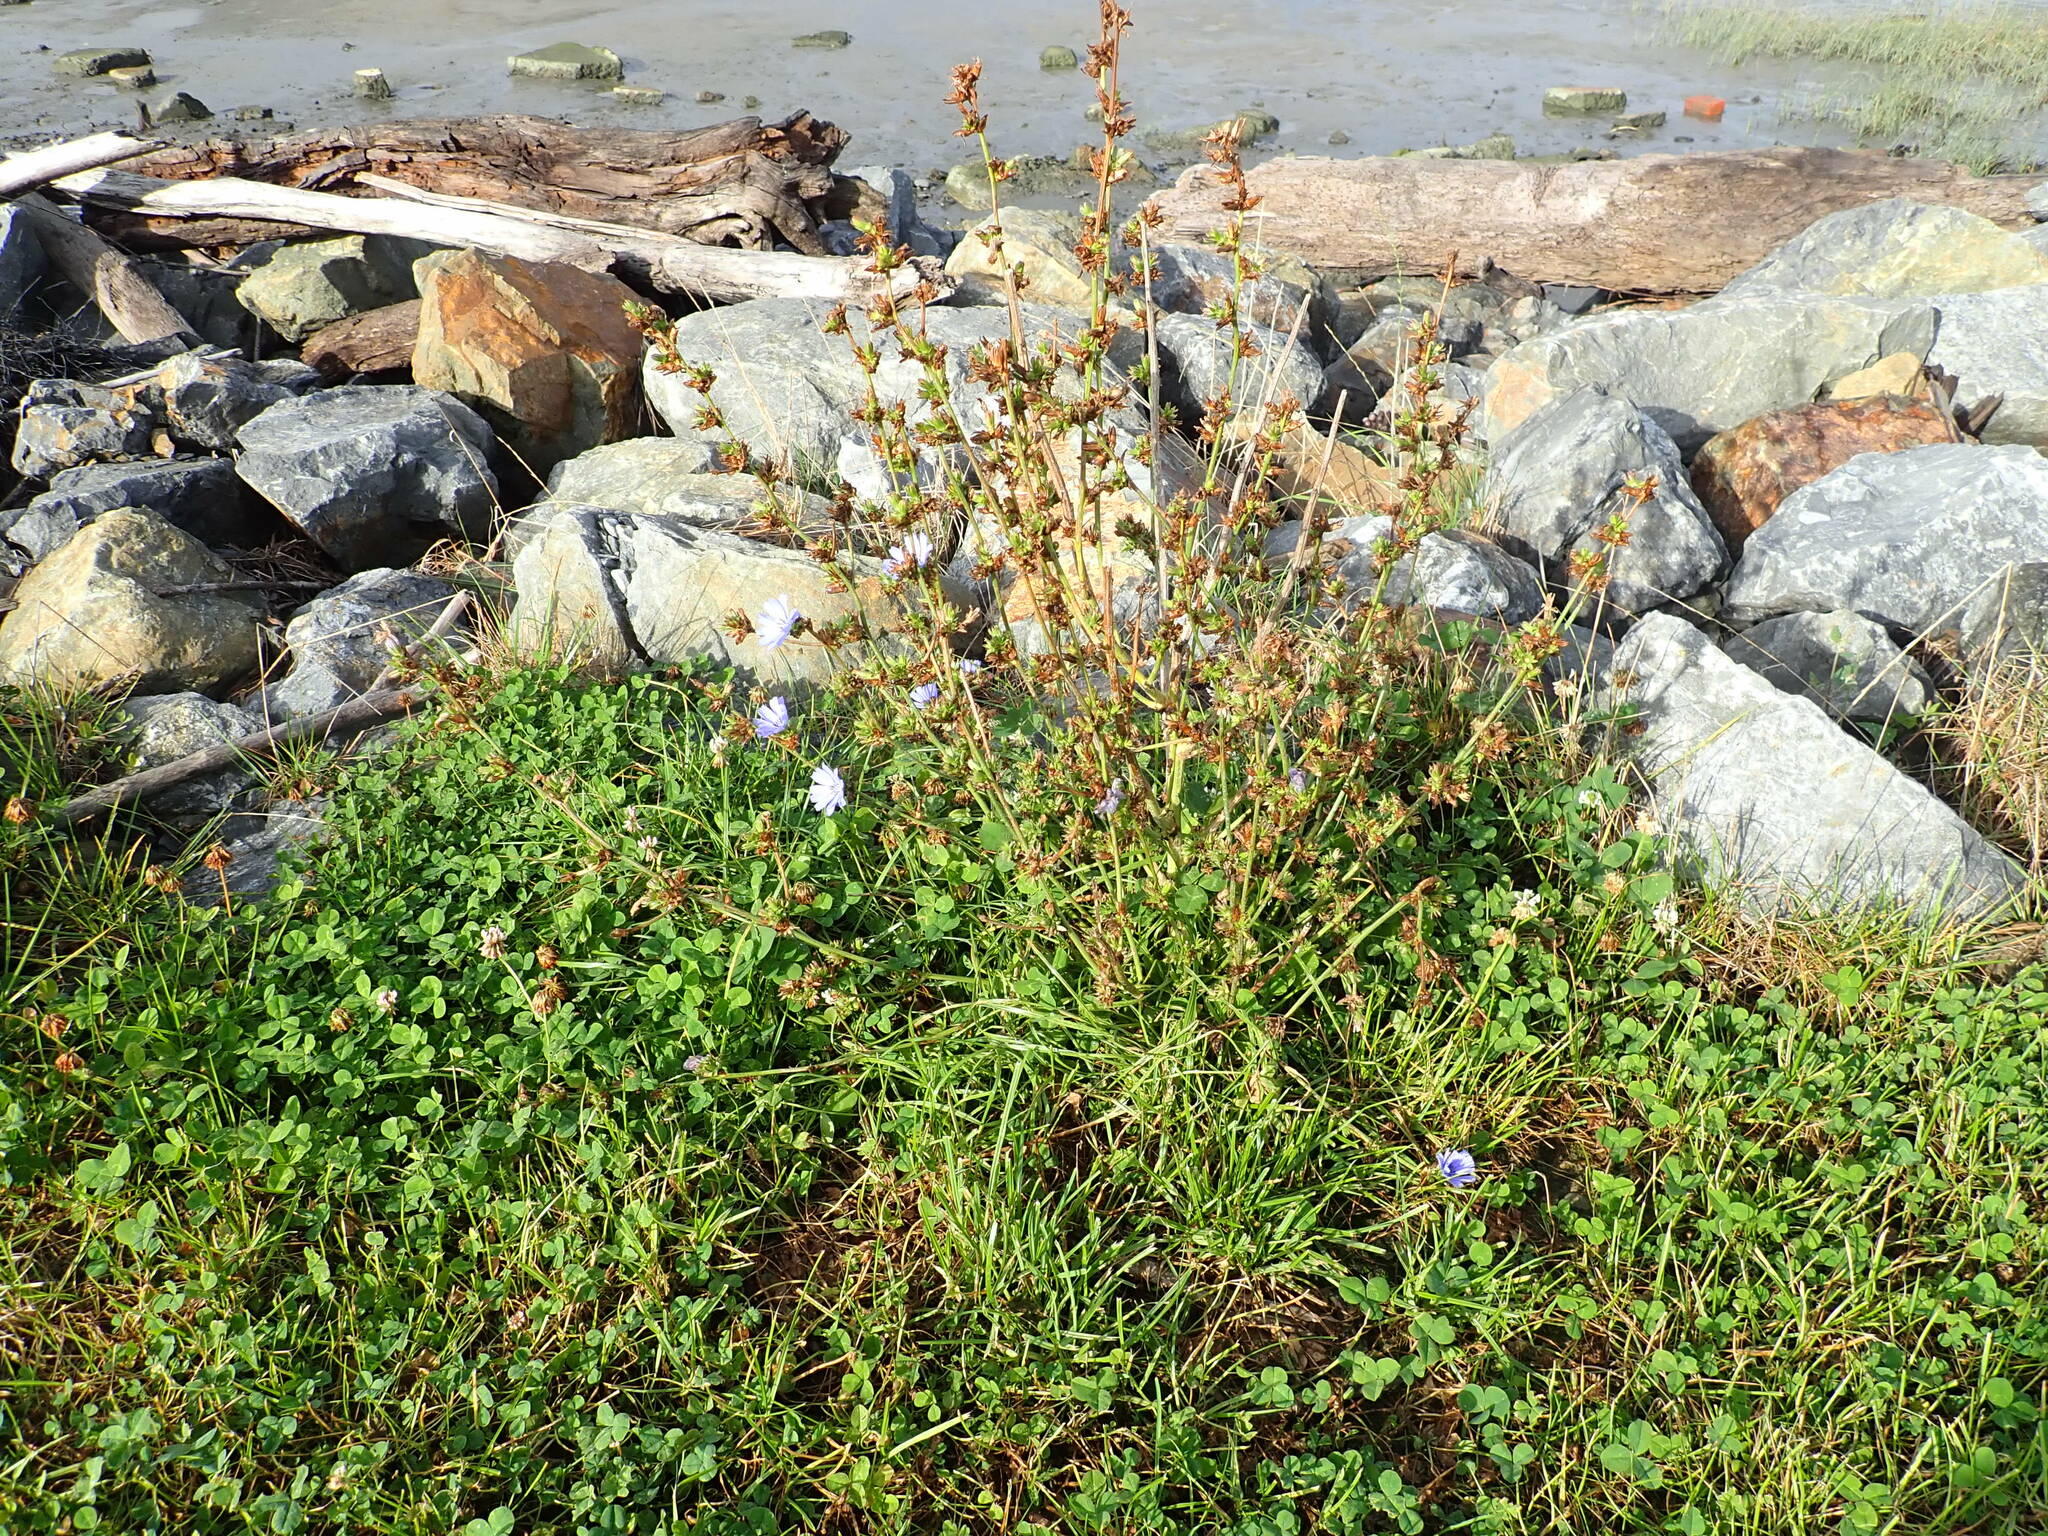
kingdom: Plantae
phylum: Tracheophyta
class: Magnoliopsida
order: Asterales
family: Asteraceae
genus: Cichorium
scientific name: Cichorium intybus
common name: Chicory
